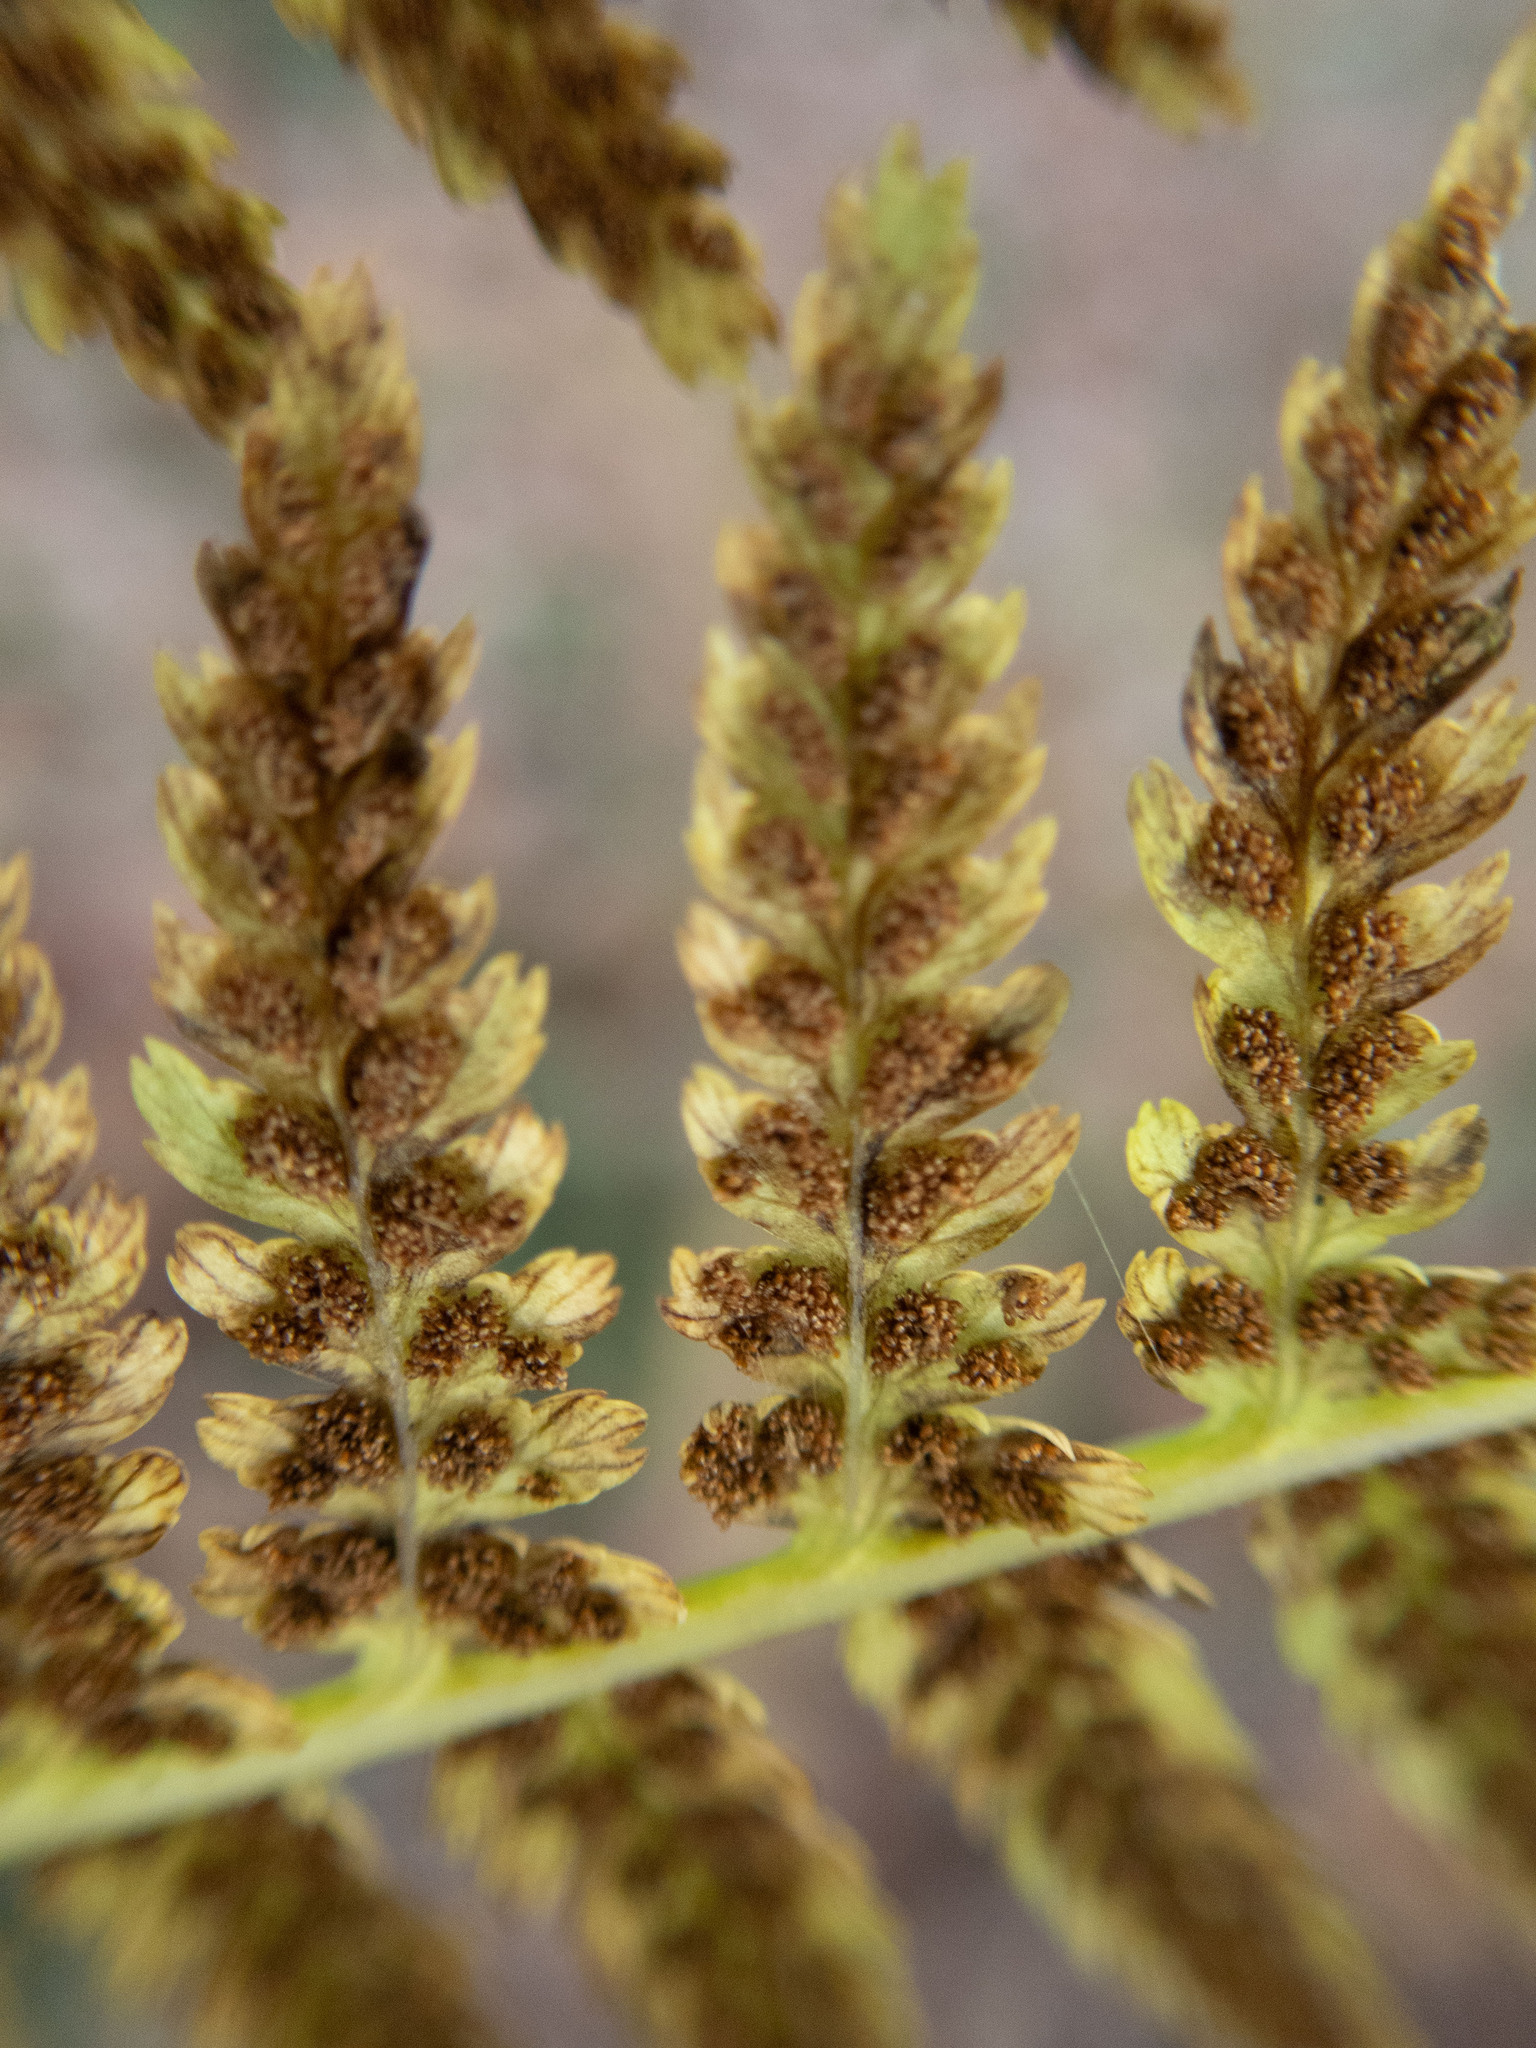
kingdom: Plantae
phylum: Tracheophyta
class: Polypodiopsida
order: Polypodiales
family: Athyriaceae
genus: Athyrium
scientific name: Athyrium angustum
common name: Northern lady fern
